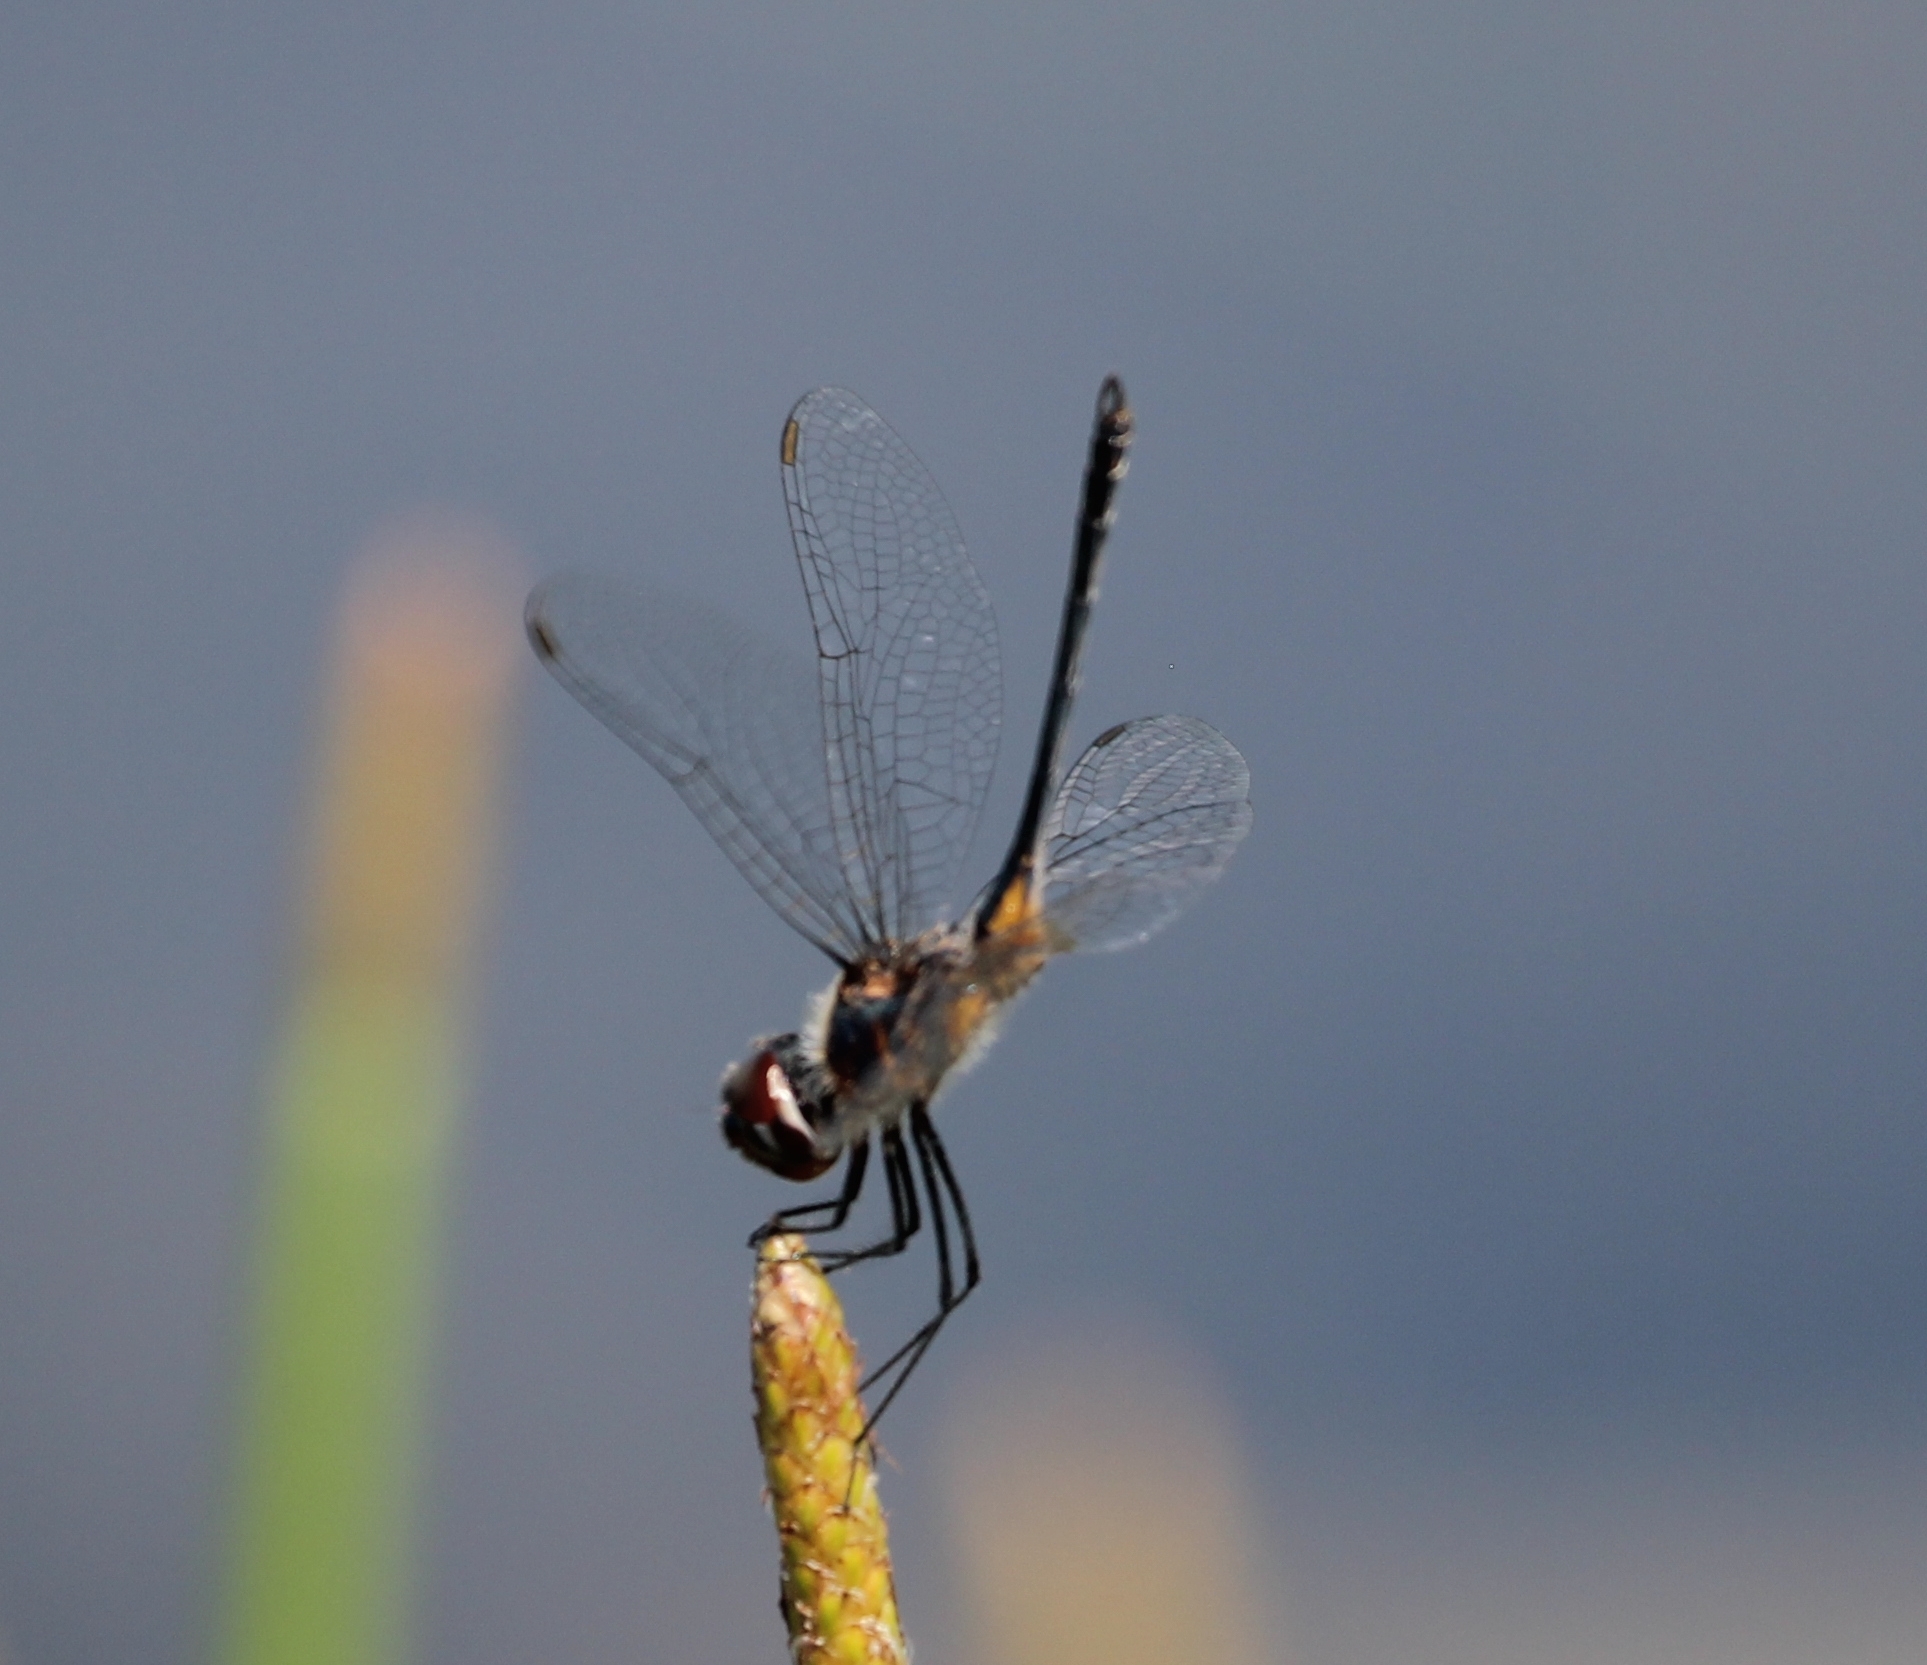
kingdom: Animalia
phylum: Arthropoda
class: Insecta
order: Odonata
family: Libellulidae
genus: Idiataphe
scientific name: Idiataphe cubensis
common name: Metallic pennant
